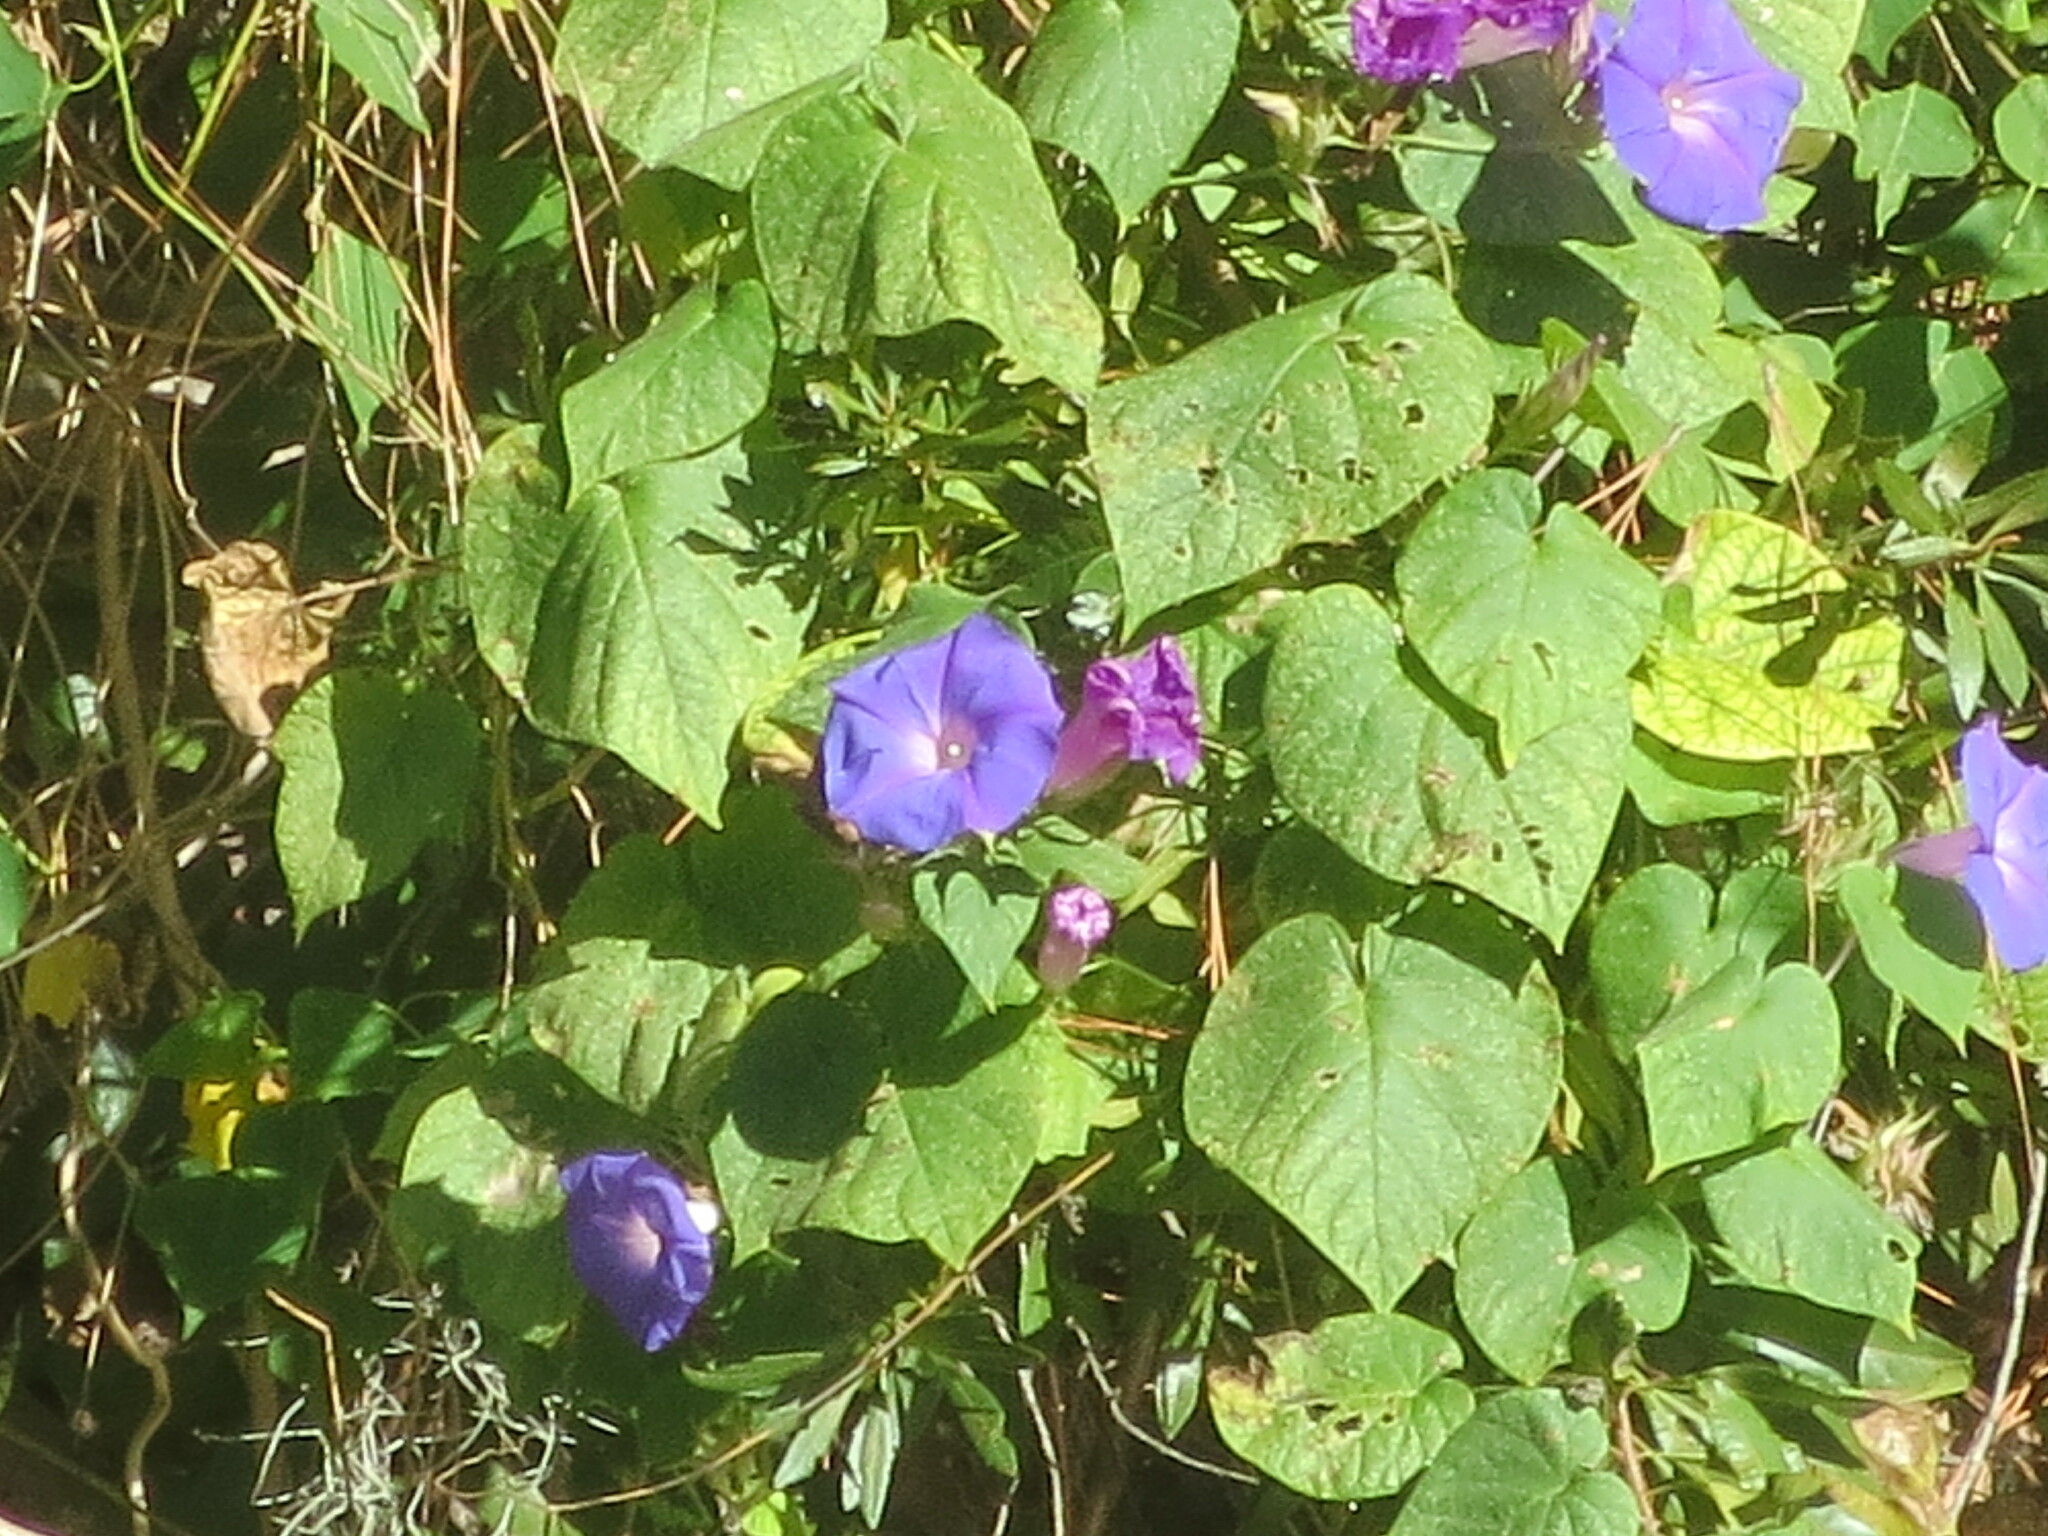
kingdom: Plantae
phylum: Tracheophyta
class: Magnoliopsida
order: Solanales
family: Convolvulaceae
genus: Ipomoea
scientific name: Ipomoea indica
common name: Blue dawnflower
